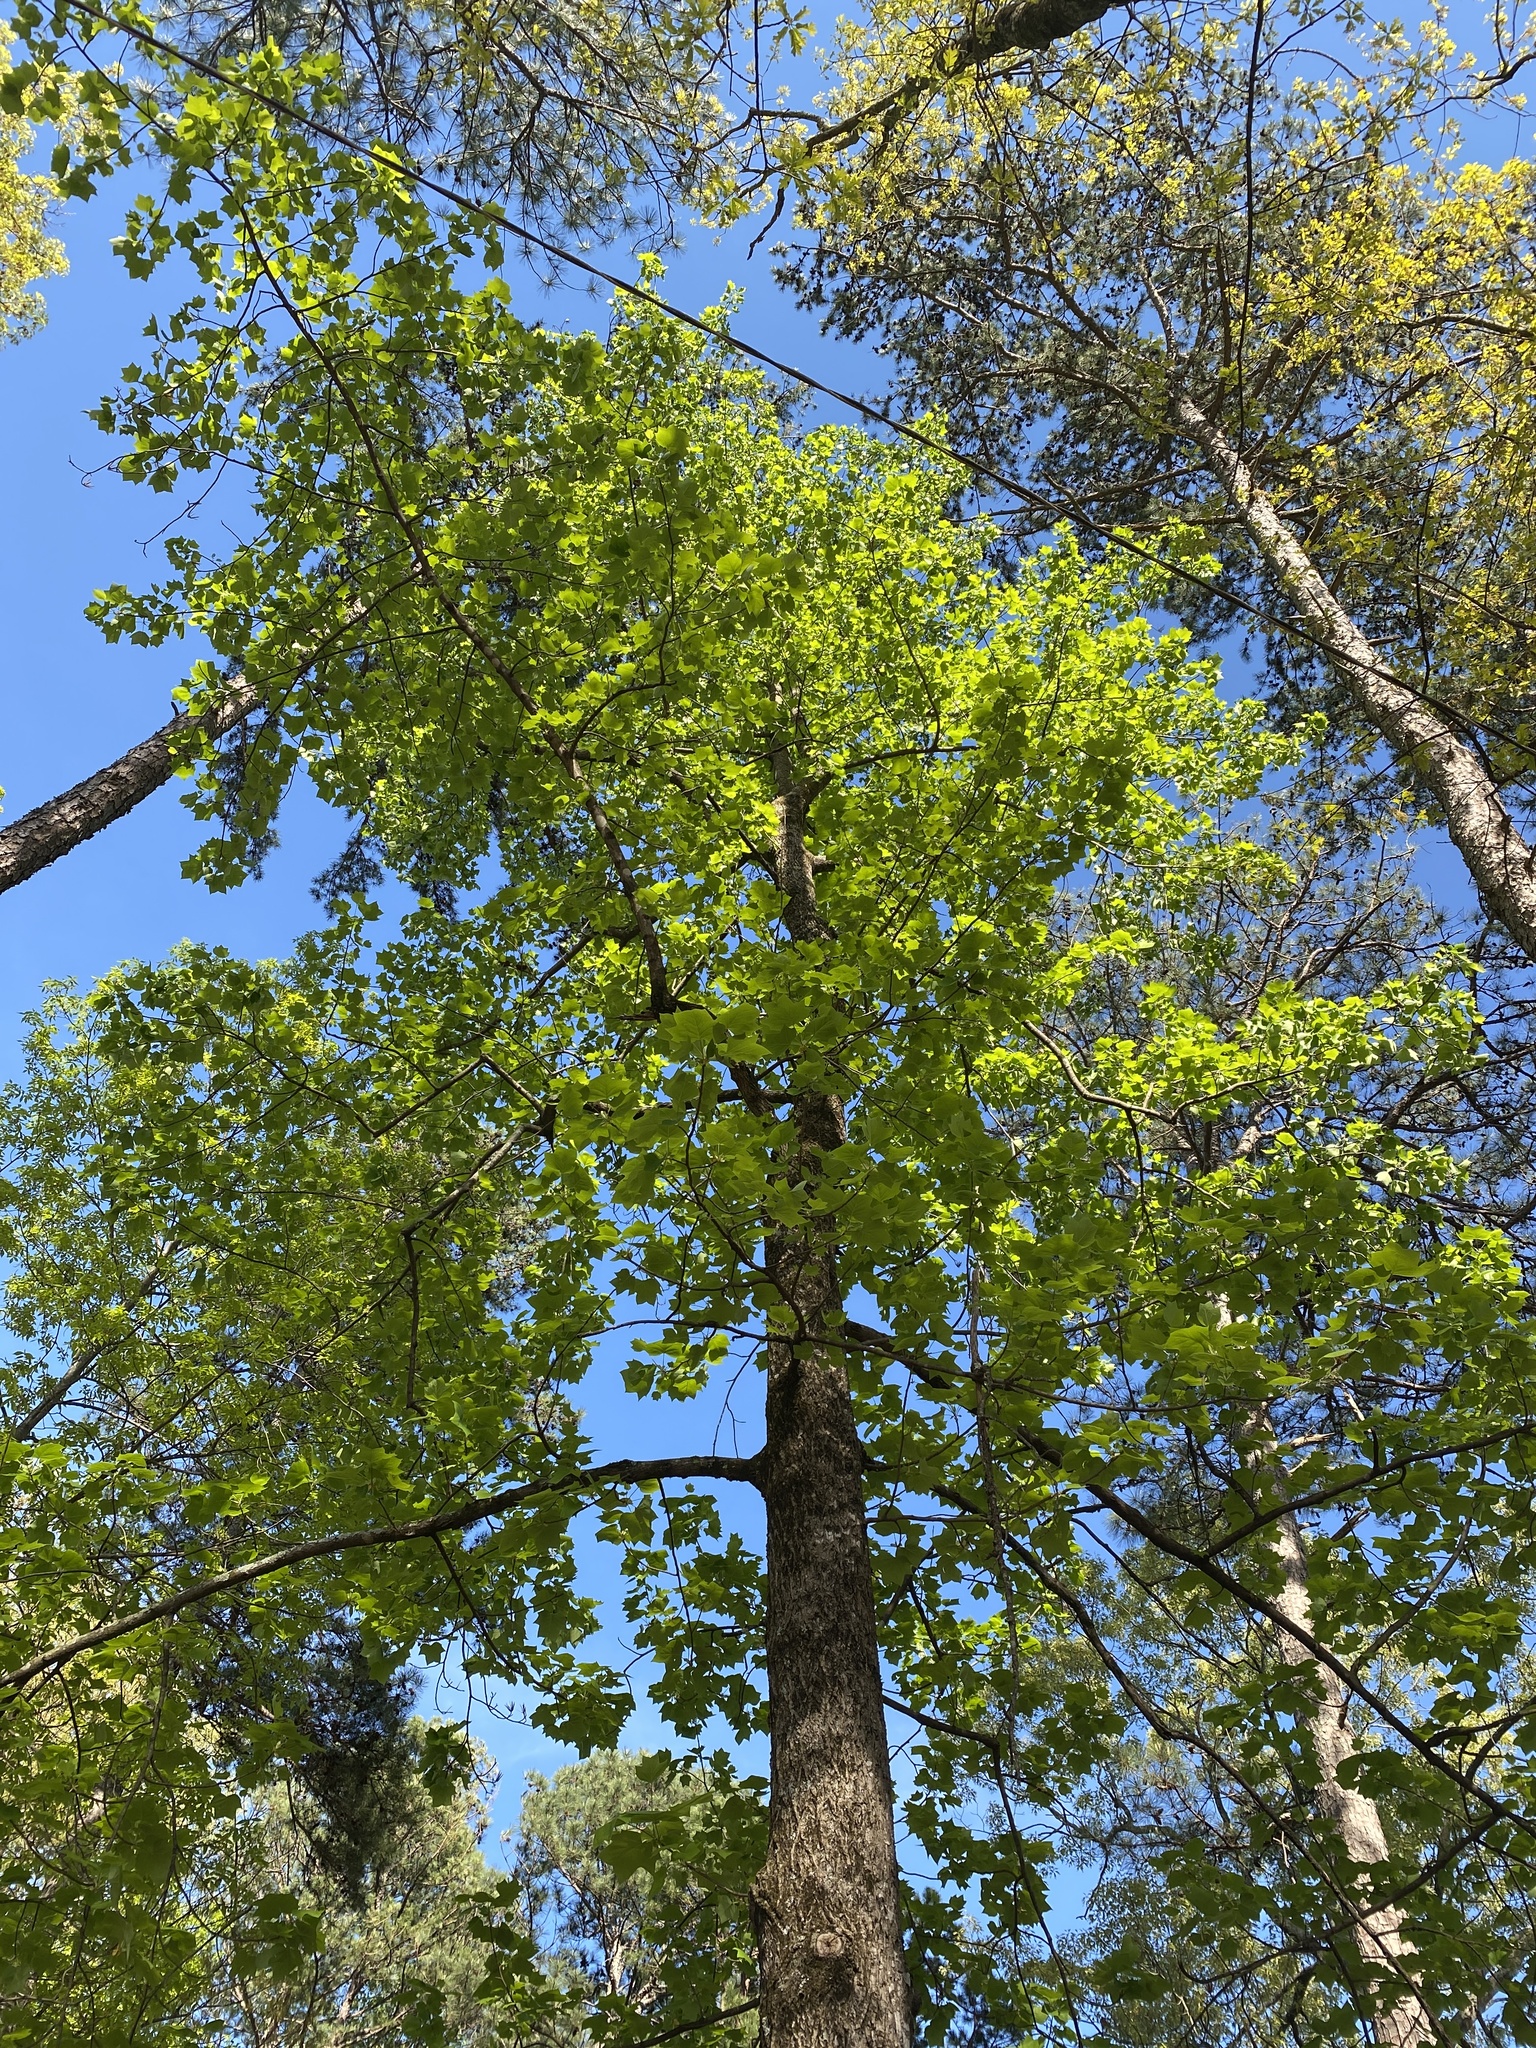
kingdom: Plantae
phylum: Tracheophyta
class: Magnoliopsida
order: Magnoliales
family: Magnoliaceae
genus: Liriodendron
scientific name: Liriodendron tulipifera
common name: Tulip tree
